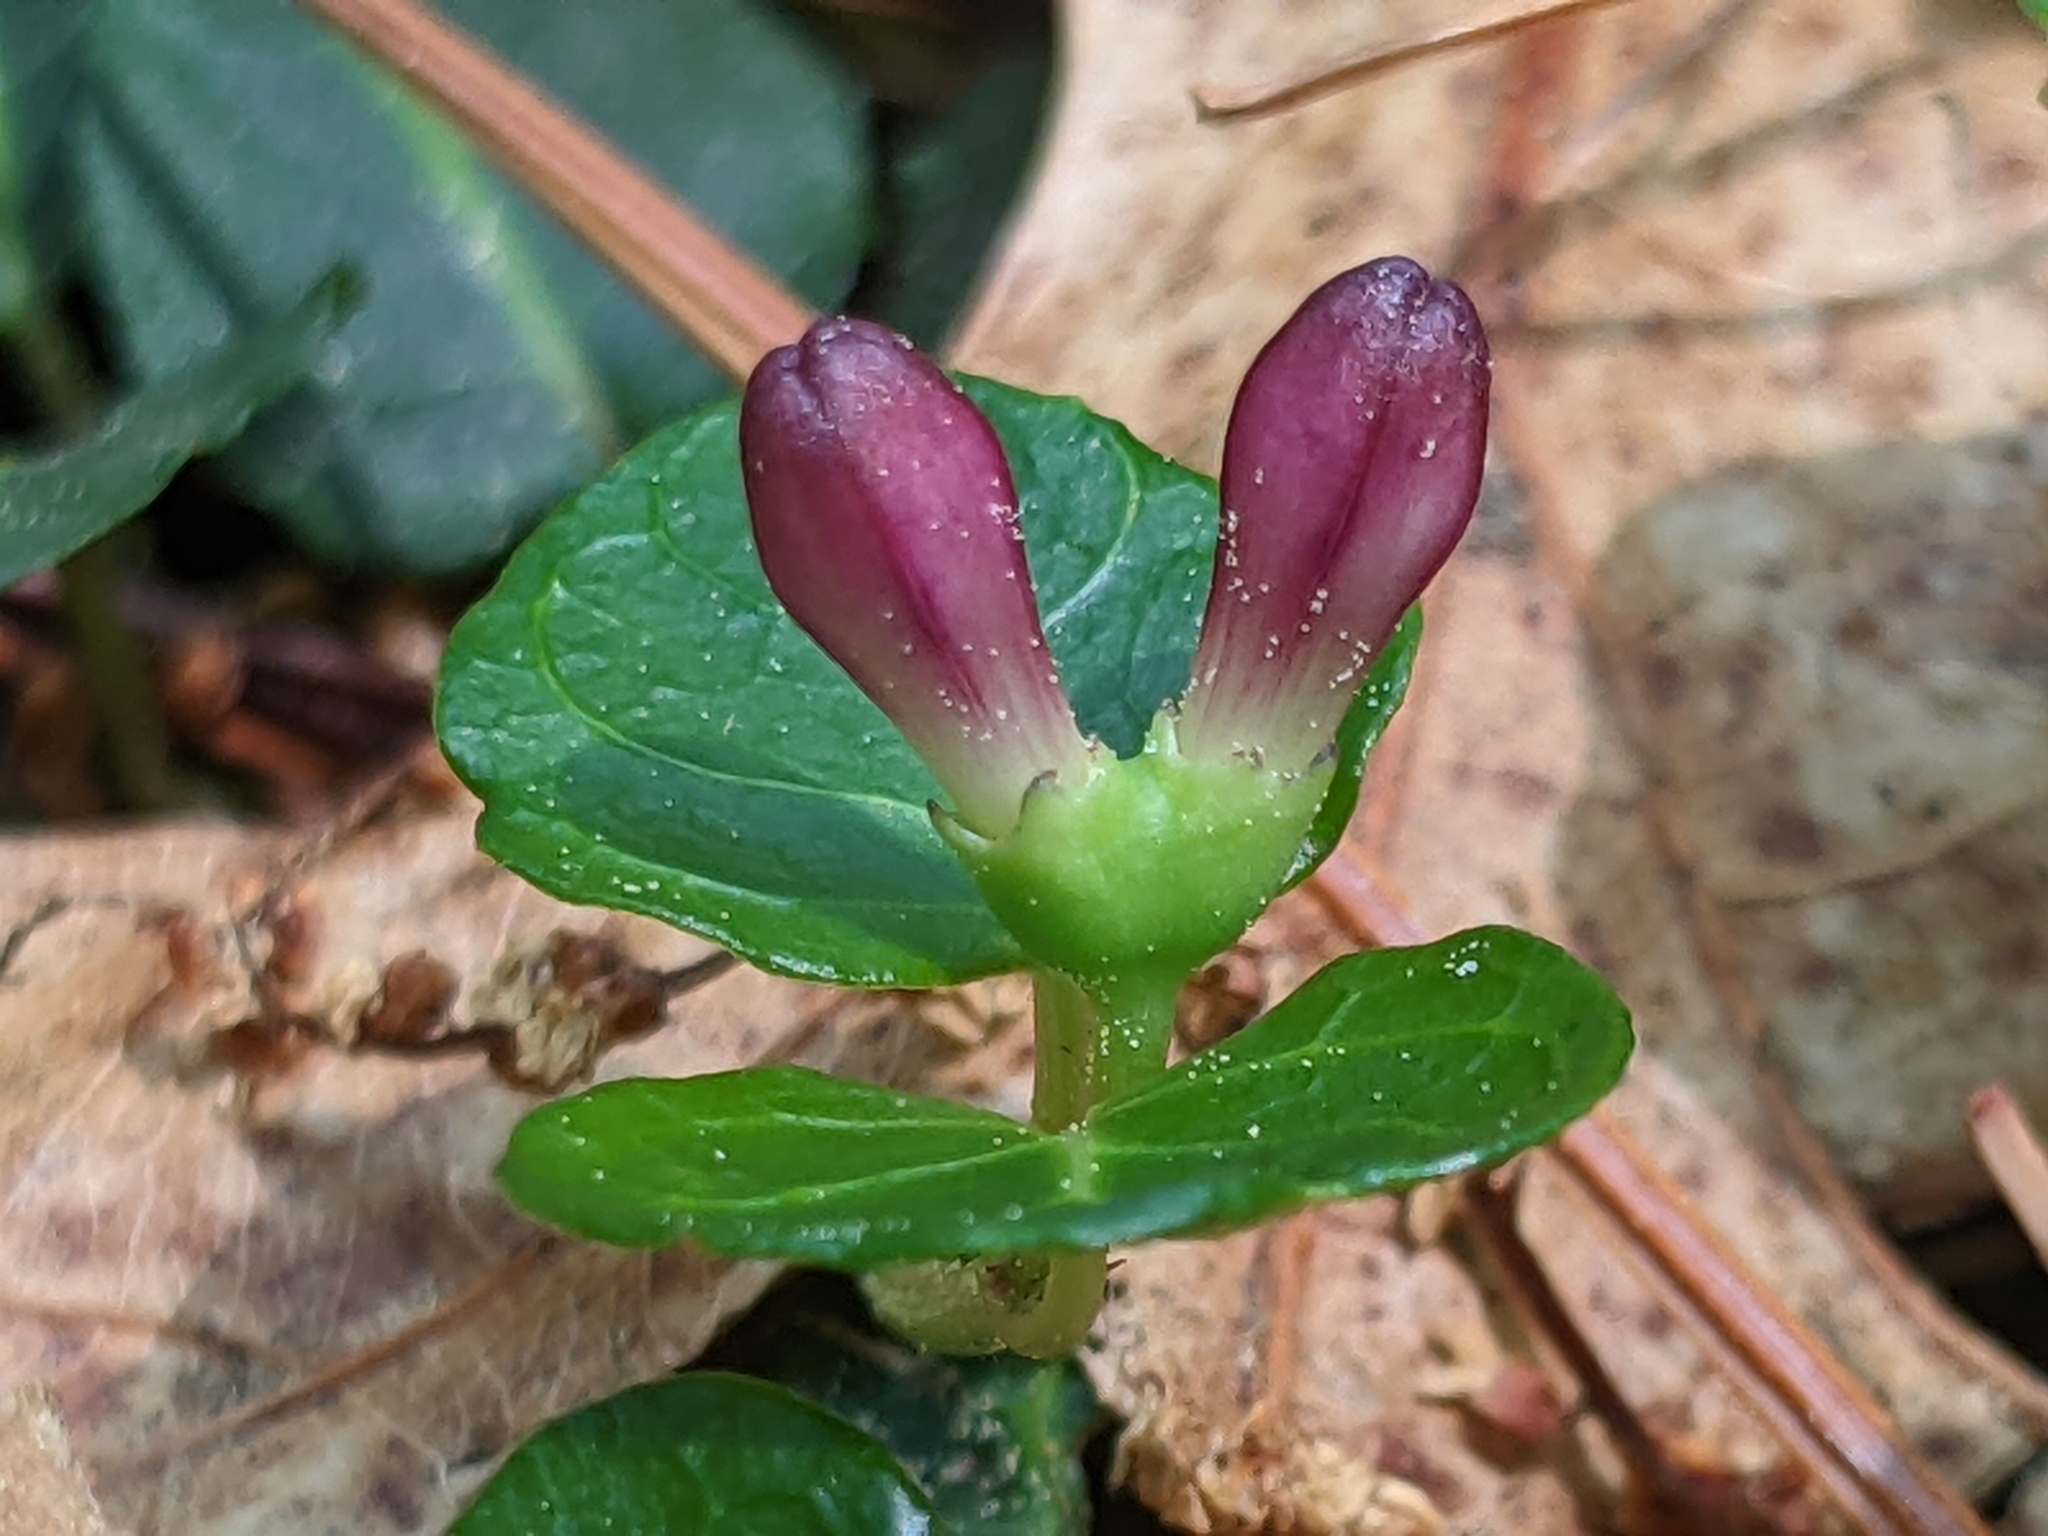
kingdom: Plantae
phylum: Tracheophyta
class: Magnoliopsida
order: Gentianales
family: Rubiaceae
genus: Mitchella
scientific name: Mitchella repens
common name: Partridge-berry
